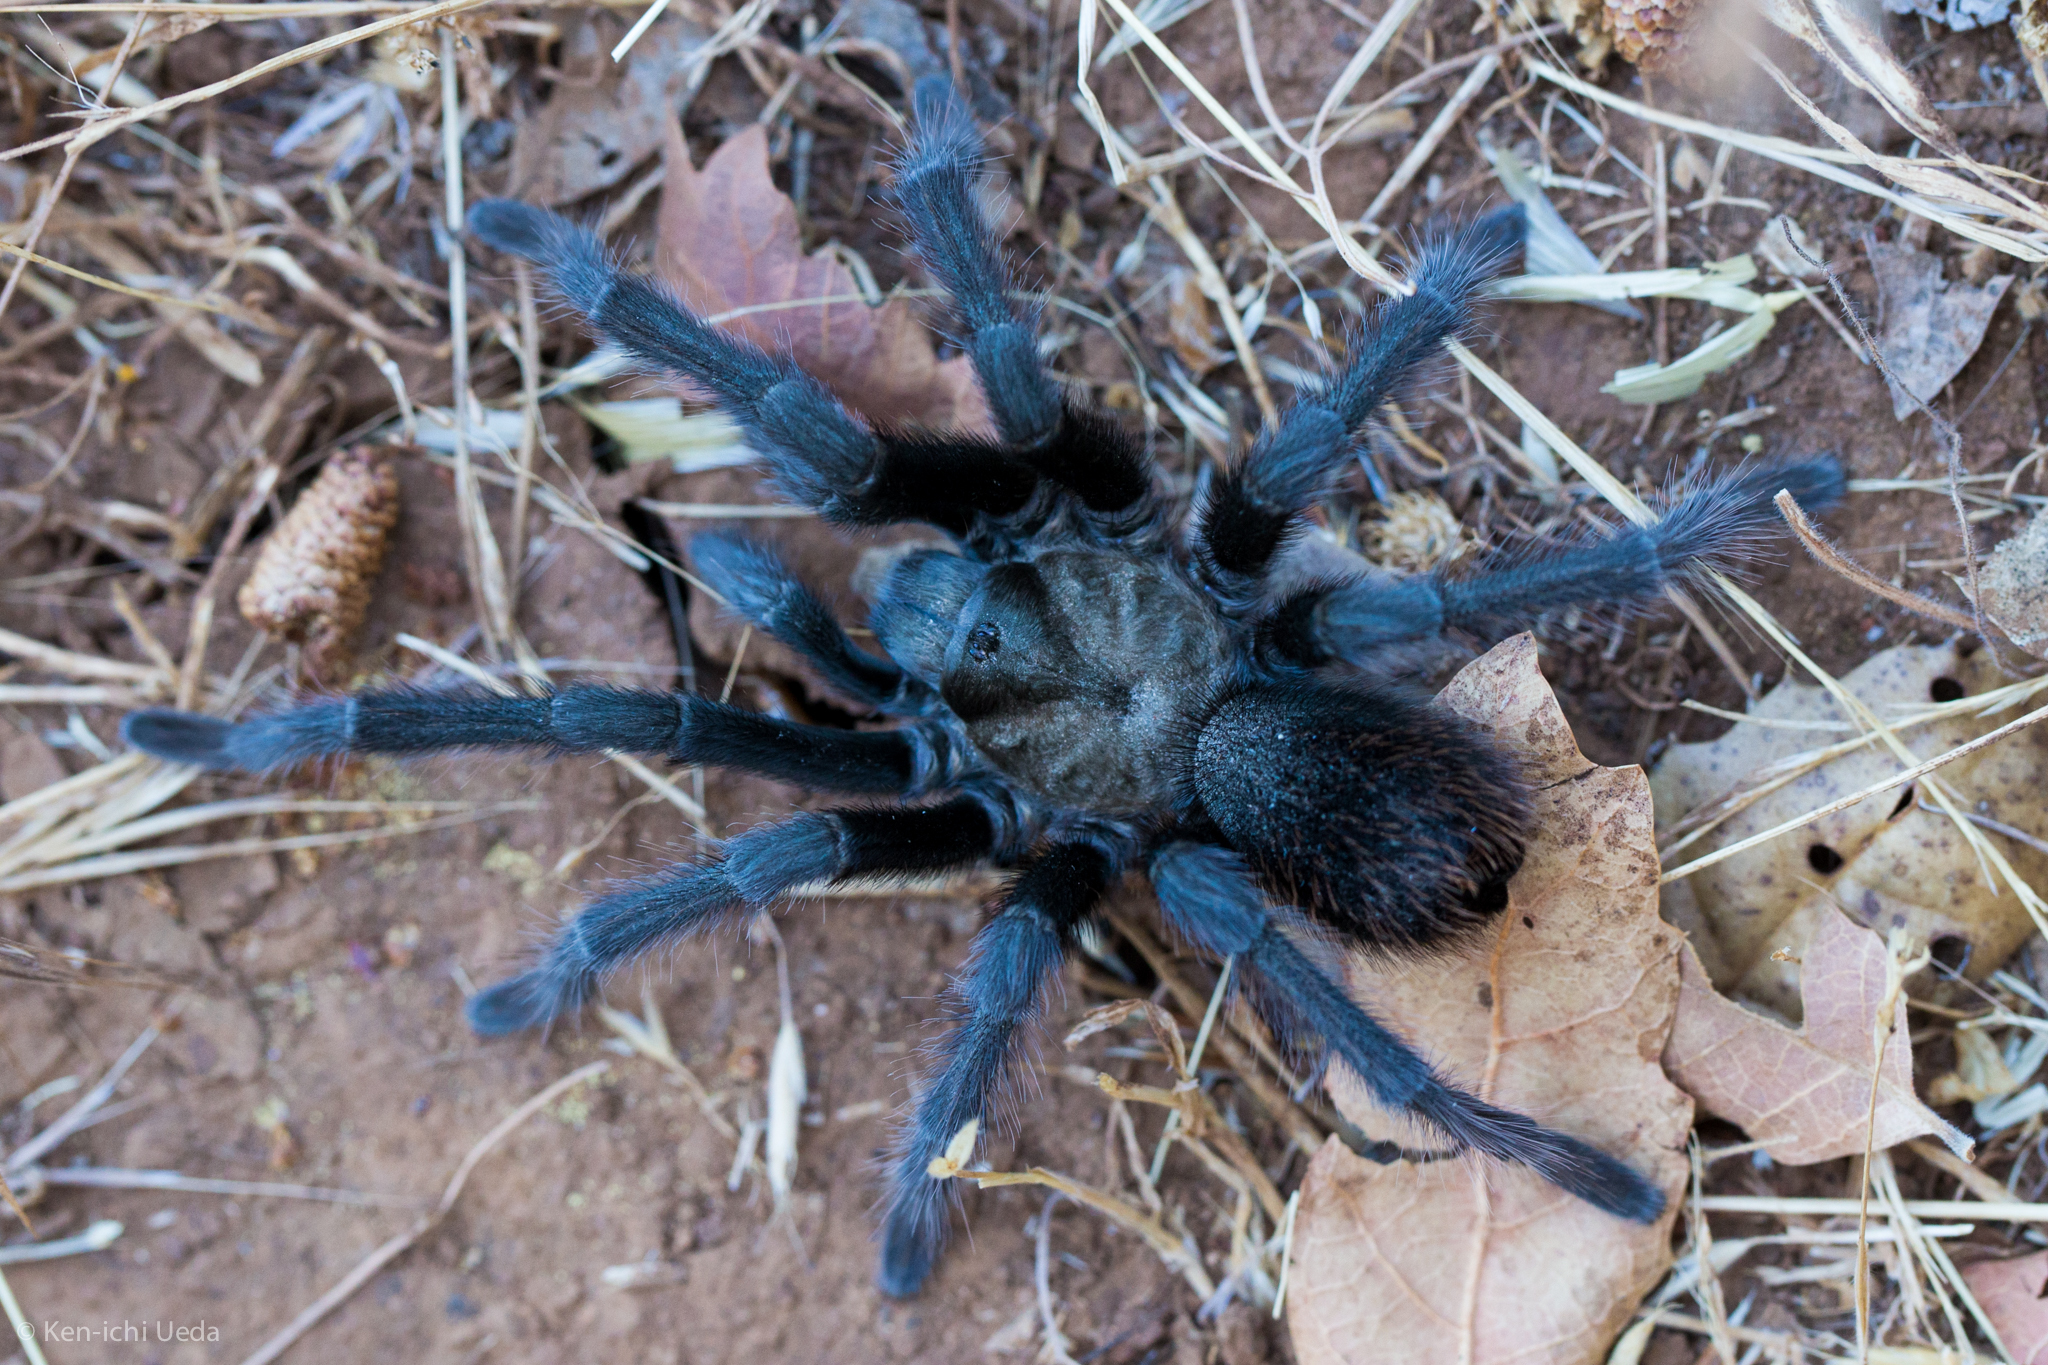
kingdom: Animalia
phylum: Arthropoda
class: Arachnida
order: Araneae
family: Theraphosidae
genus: Aphonopelma
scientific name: Aphonopelma iodius
